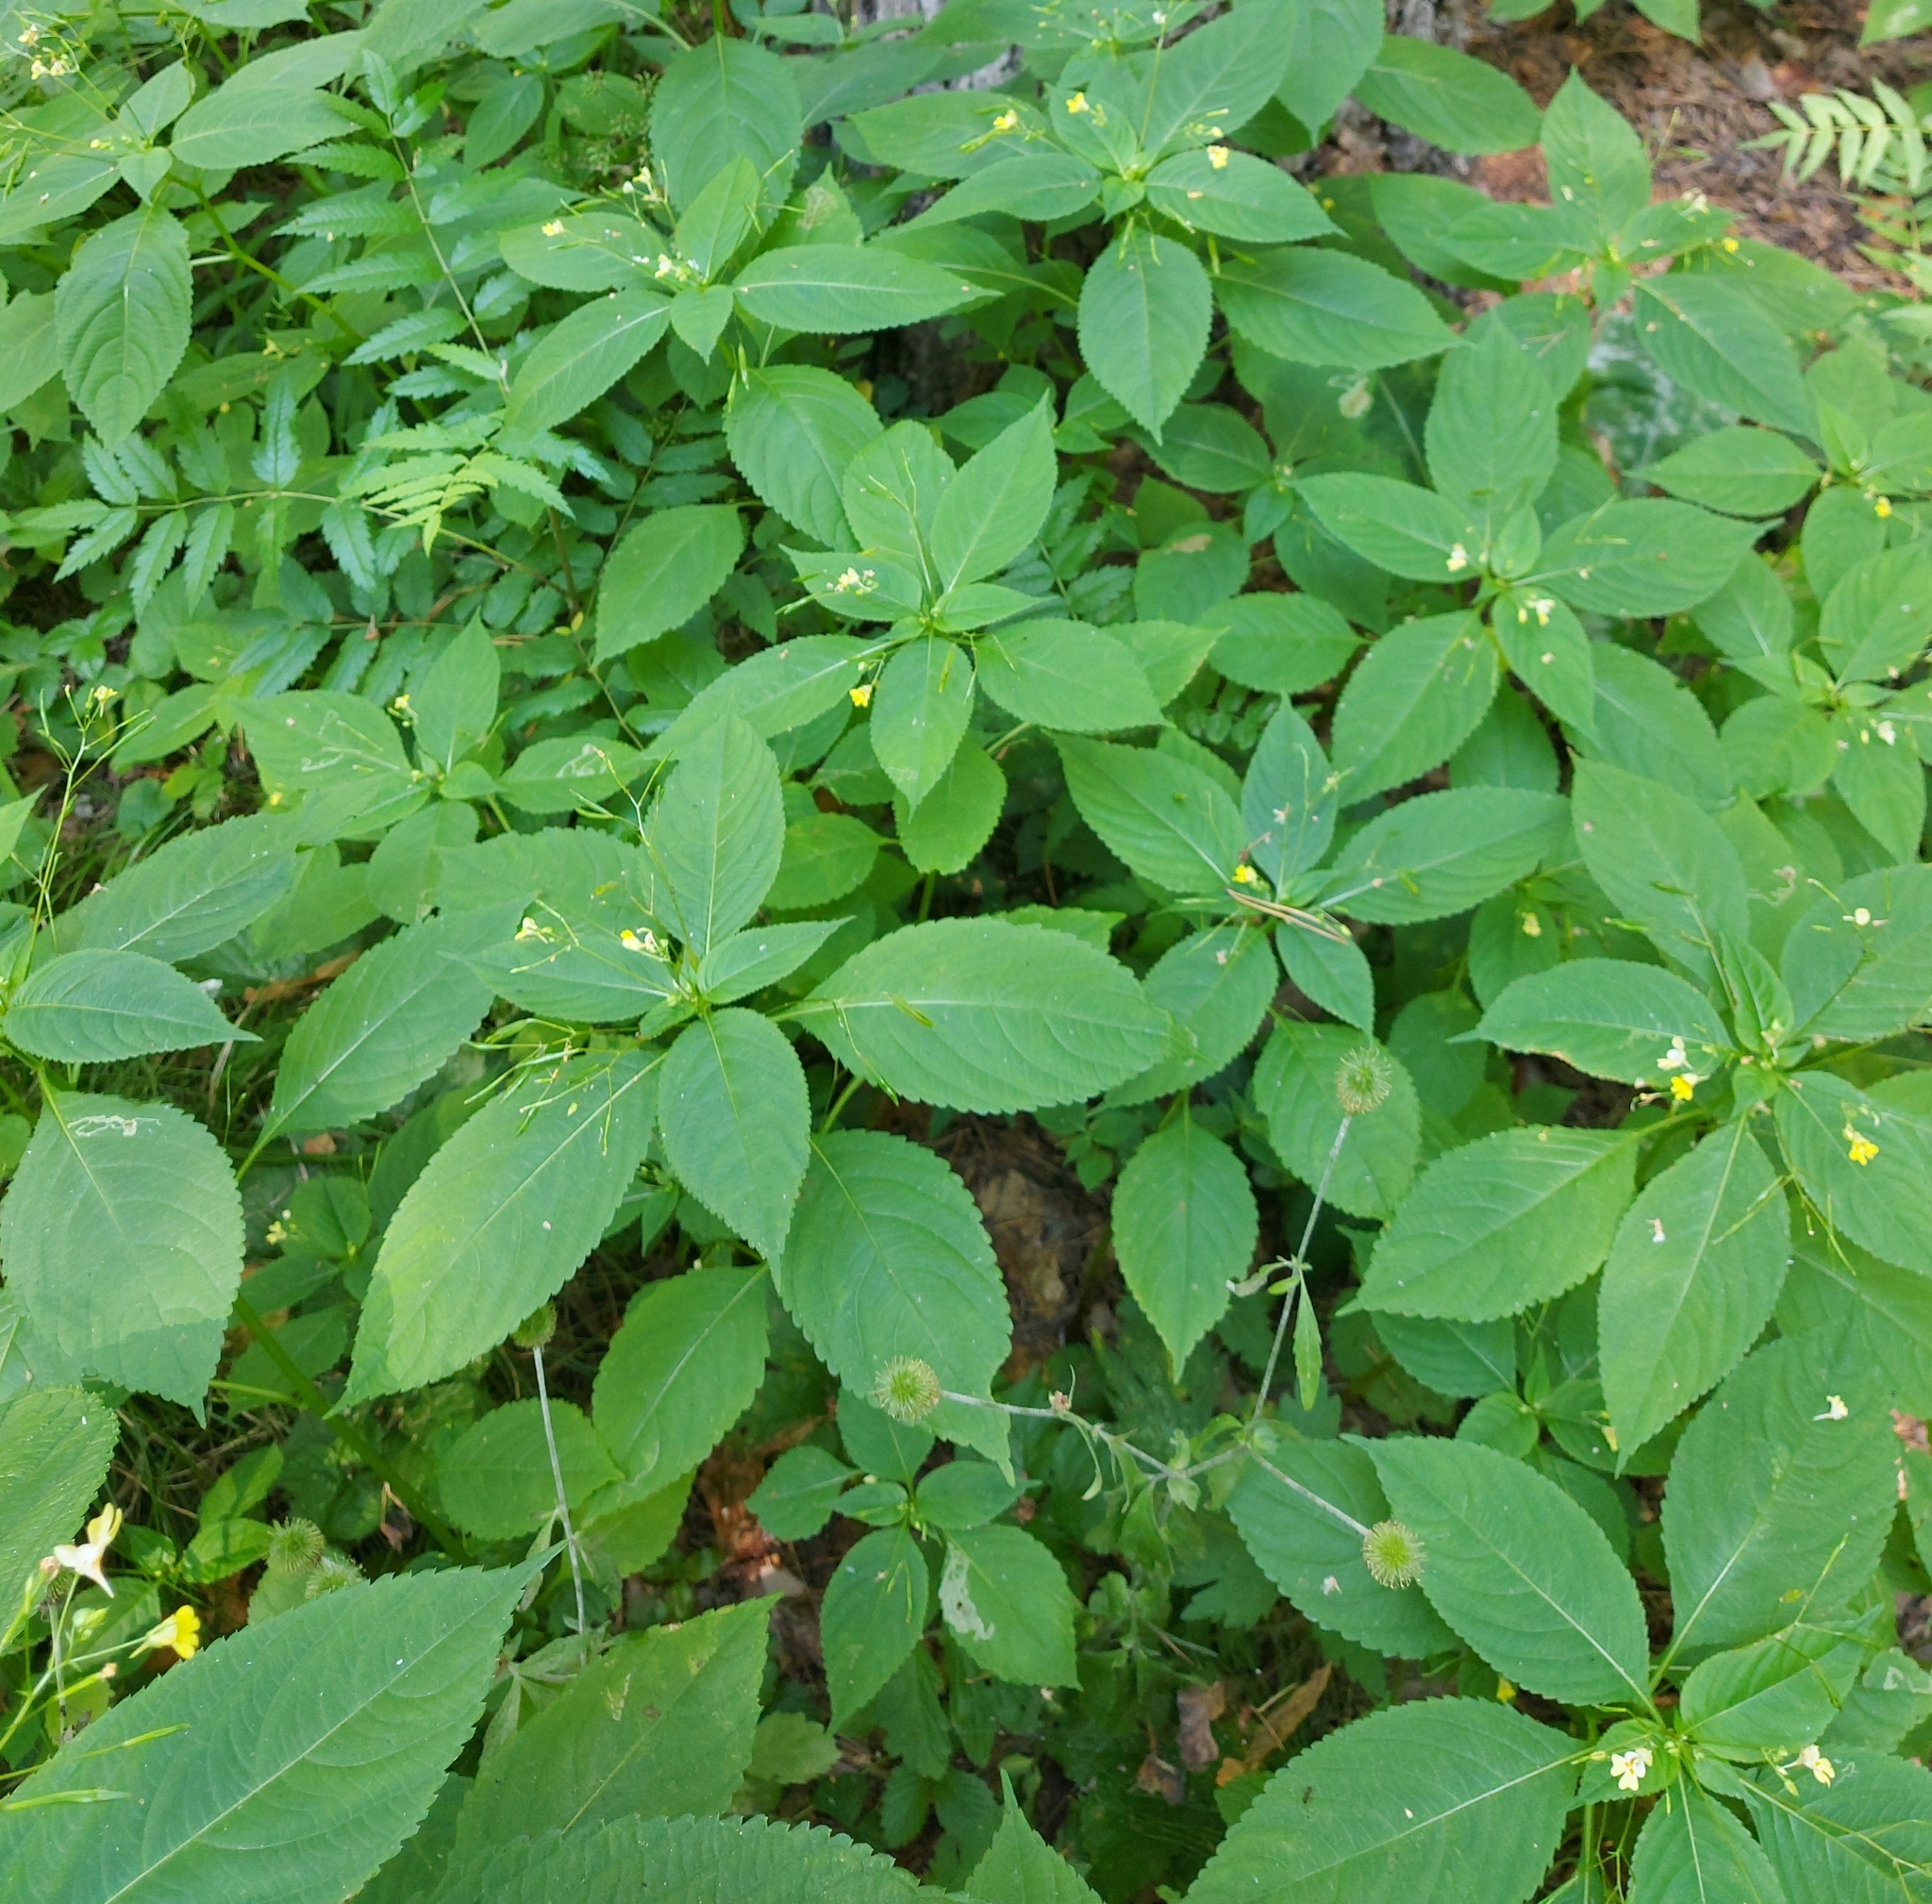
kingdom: Plantae
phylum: Tracheophyta
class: Magnoliopsida
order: Ericales
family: Balsaminaceae
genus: Impatiens
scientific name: Impatiens parviflora
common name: Small balsam
